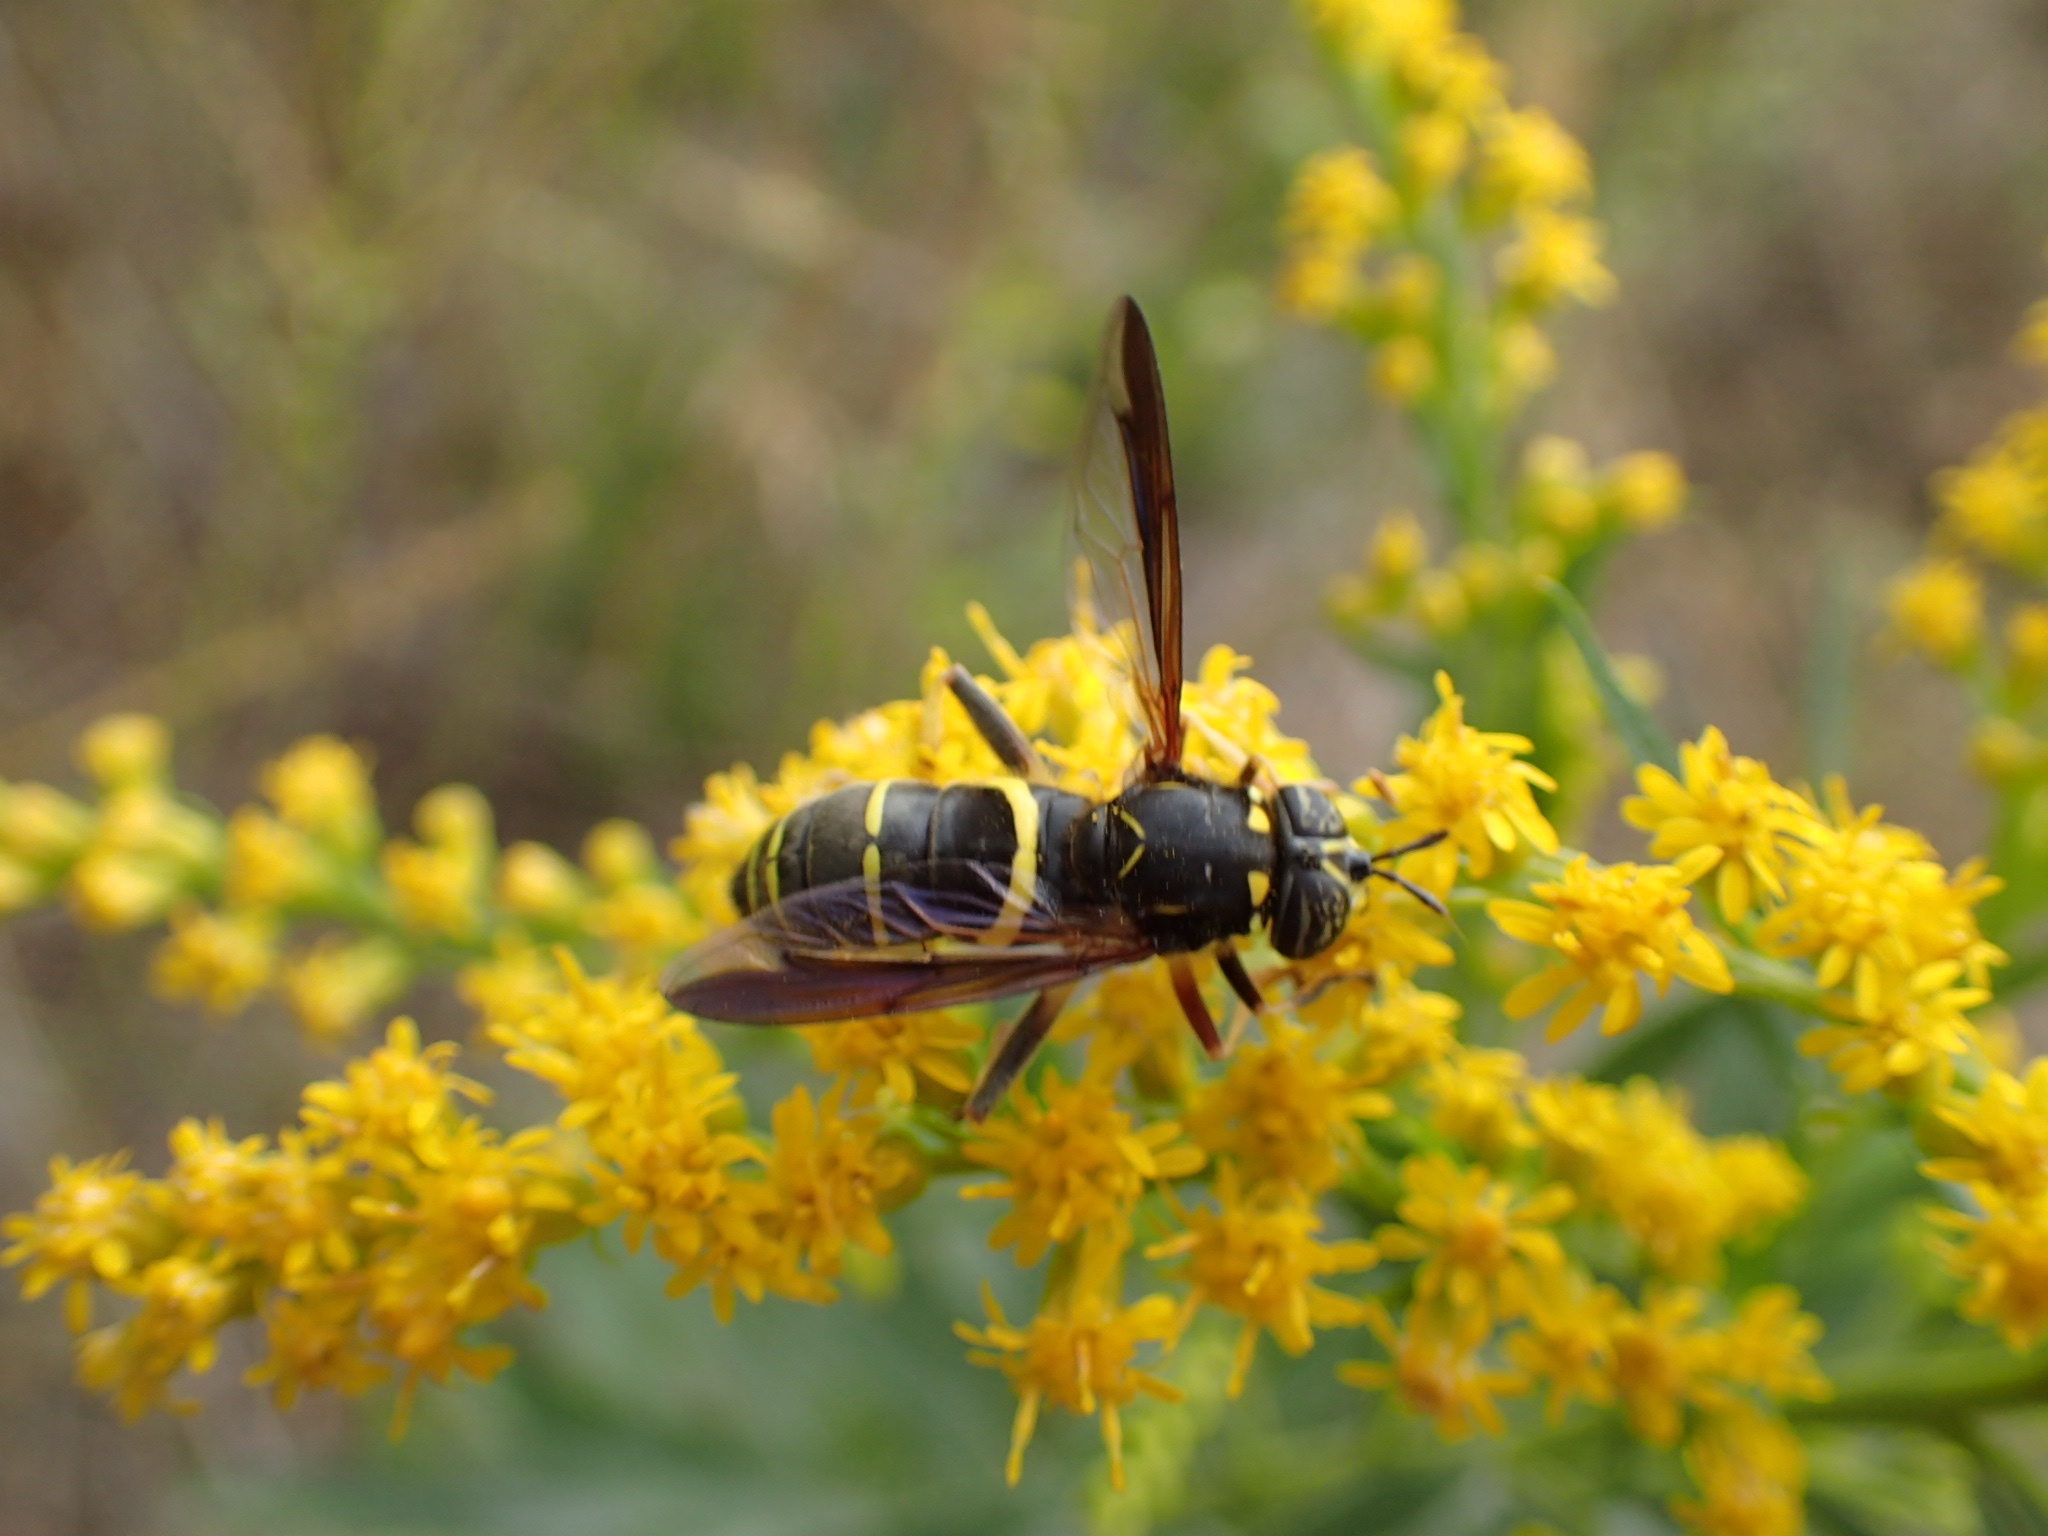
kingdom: Animalia
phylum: Arthropoda
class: Insecta
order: Diptera
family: Syrphidae
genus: Spilomyia
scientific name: Spilomyia sayi
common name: Four-lined hornet fly
